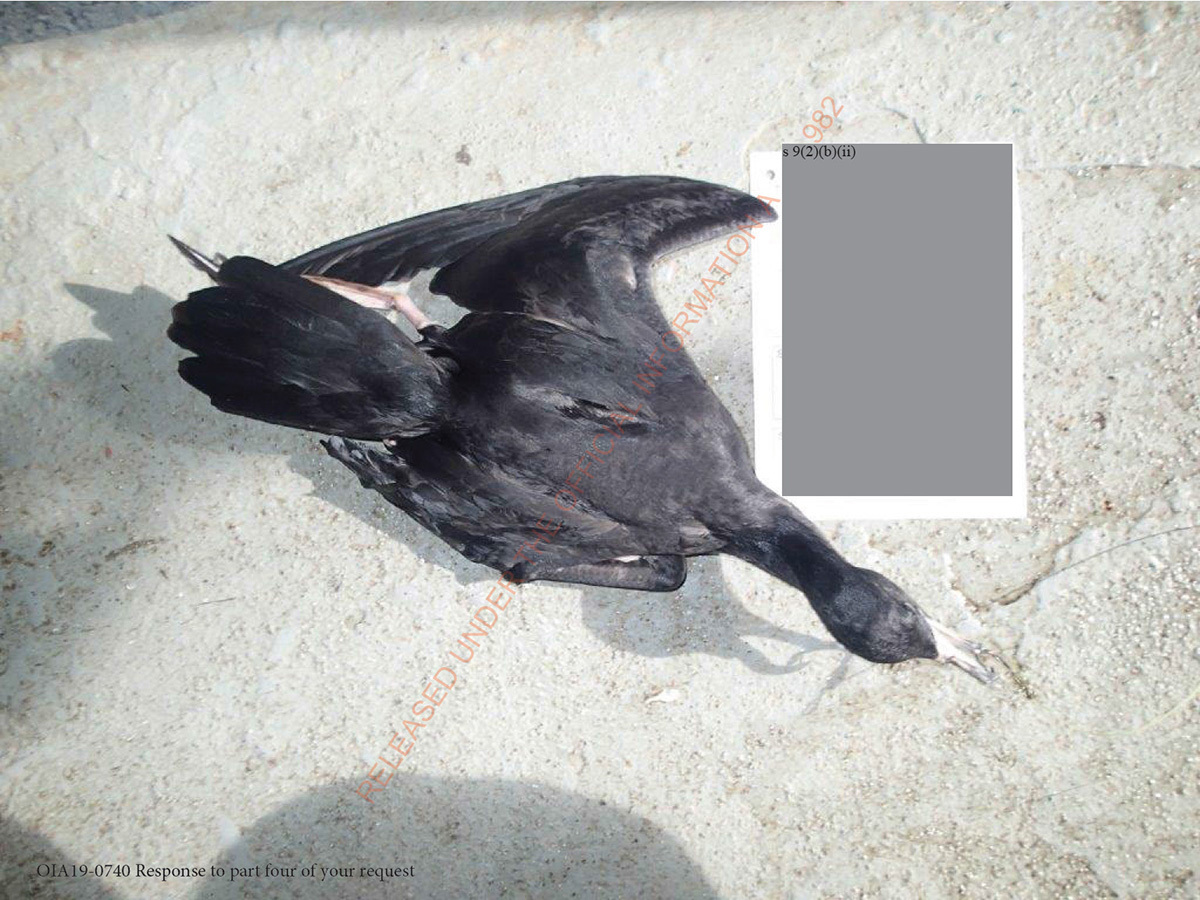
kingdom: Animalia
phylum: Chordata
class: Aves
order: Procellariiformes
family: Procellariidae
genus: Puffinus
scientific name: Puffinus carneipes
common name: Flesh-footed shearwater
